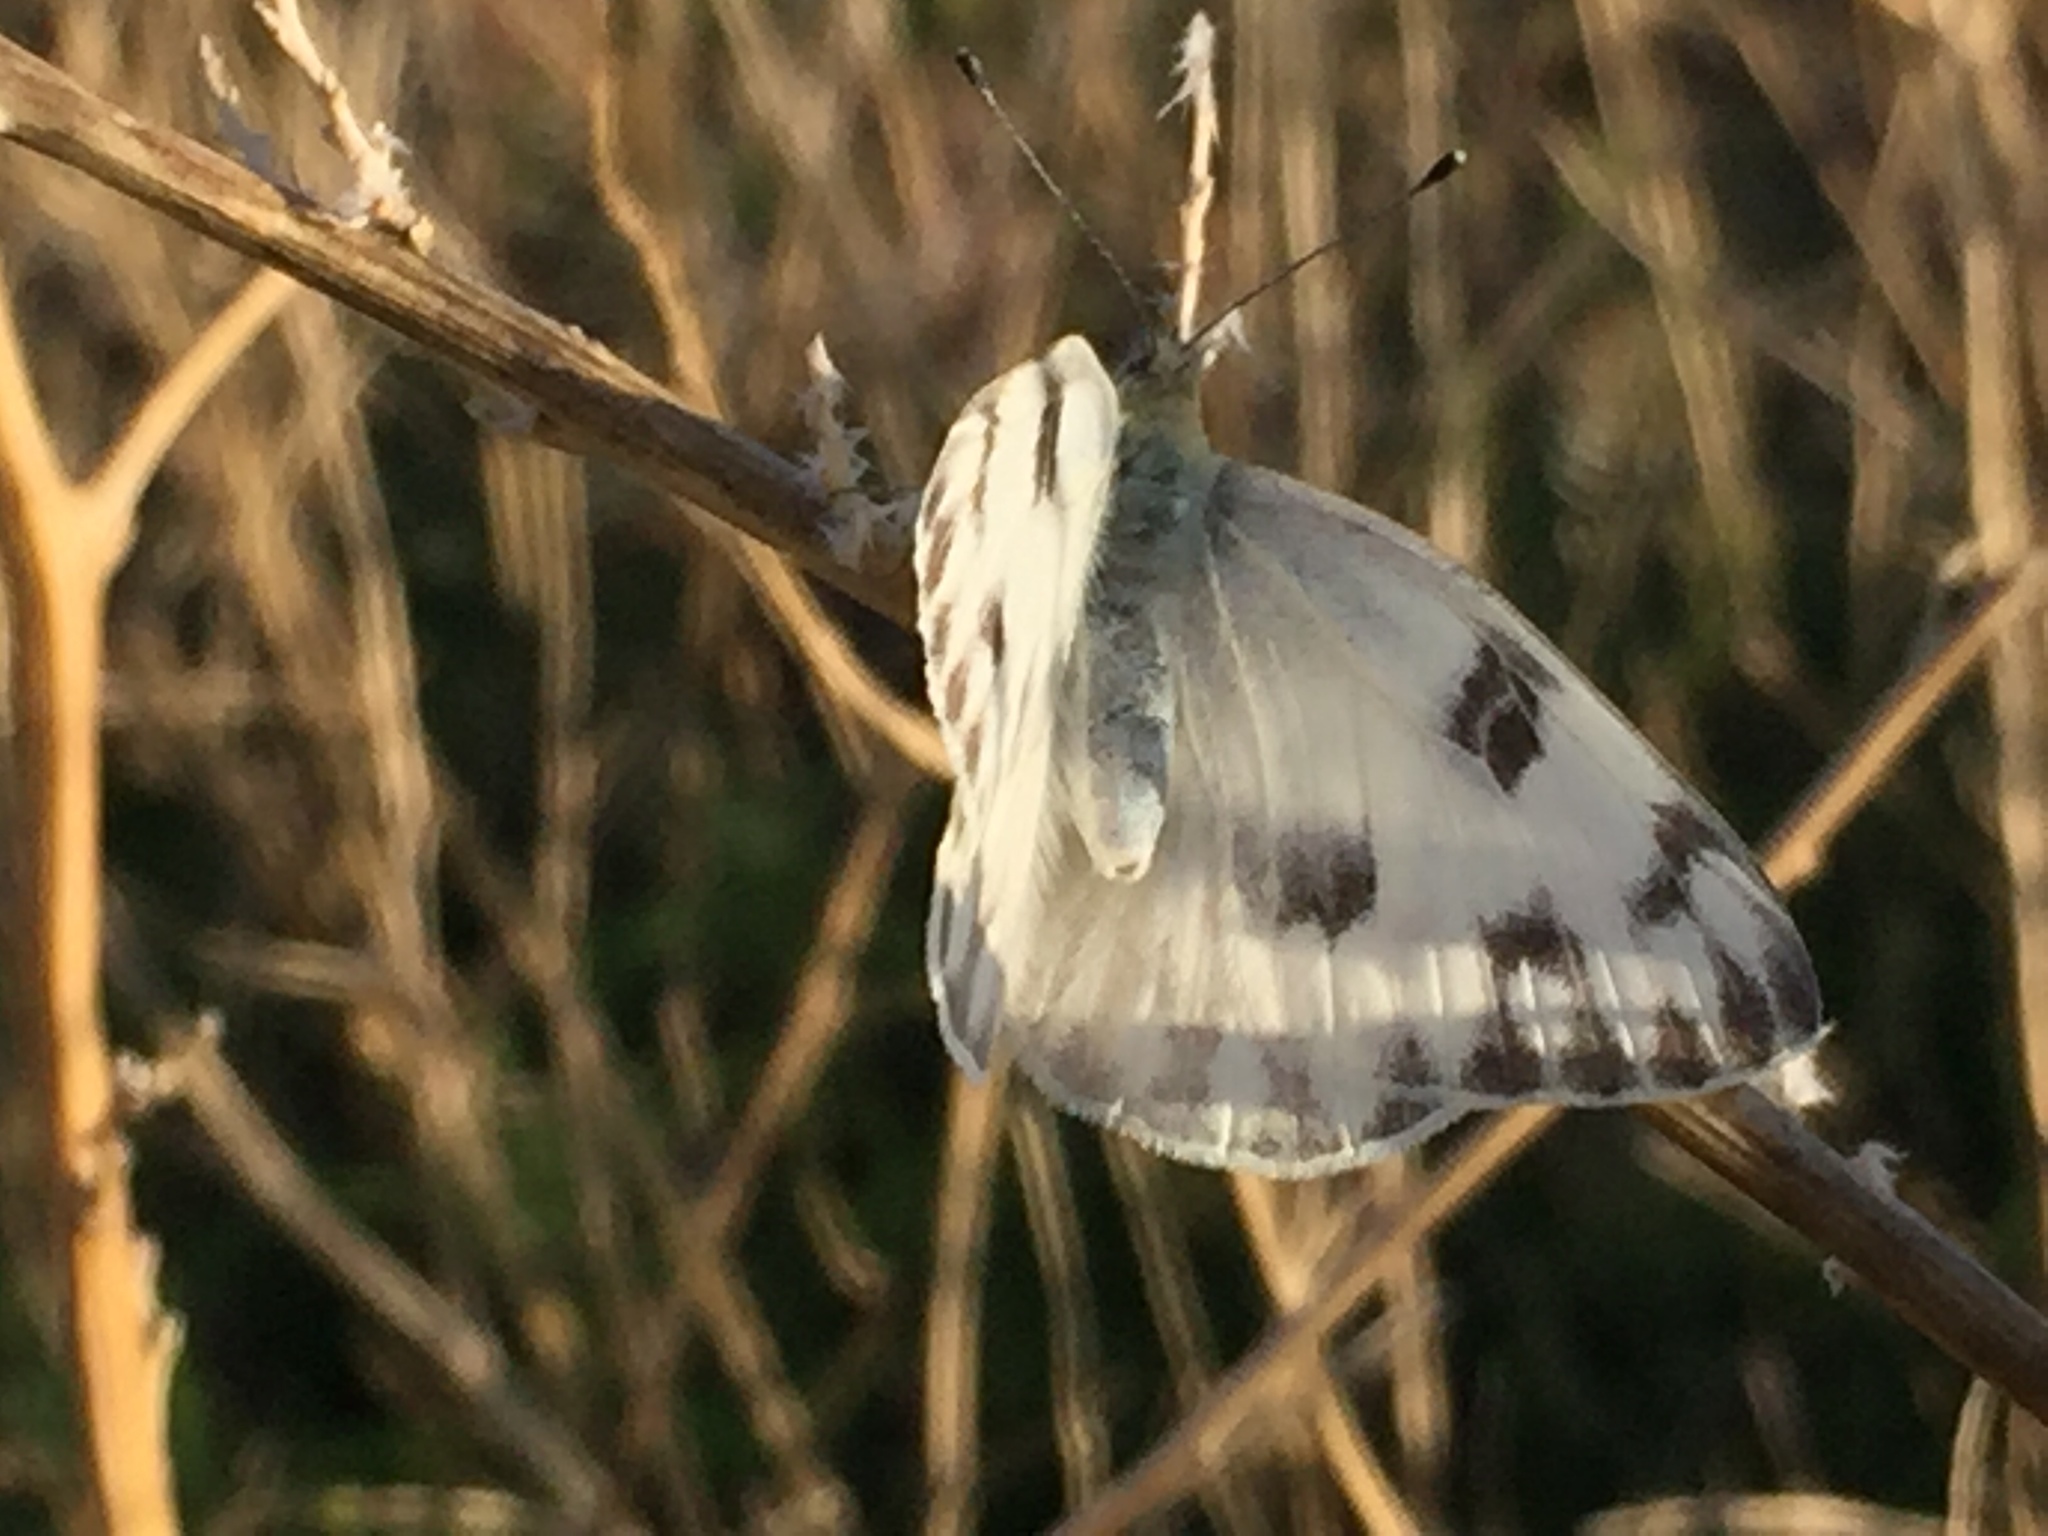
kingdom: Animalia
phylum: Arthropoda
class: Insecta
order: Lepidoptera
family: Pieridae
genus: Pontia
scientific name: Pontia protodice
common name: Checkered white
